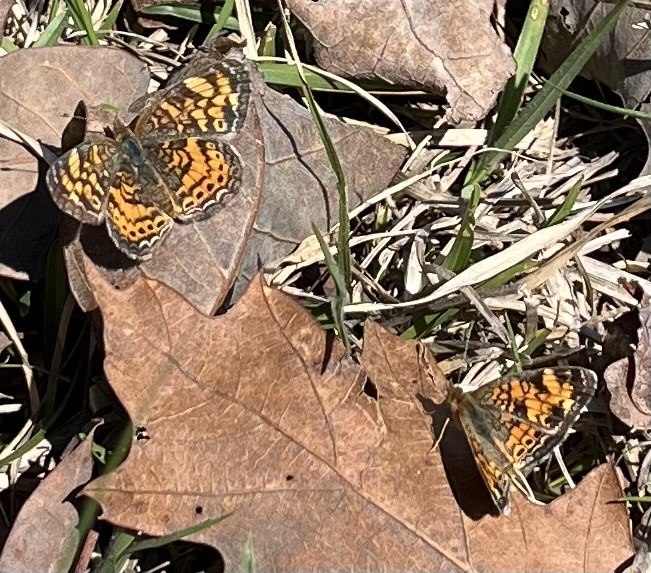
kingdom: Animalia
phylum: Arthropoda
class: Insecta
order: Lepidoptera
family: Nymphalidae
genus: Phyciodes
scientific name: Phyciodes tharos
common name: Pearl crescent
